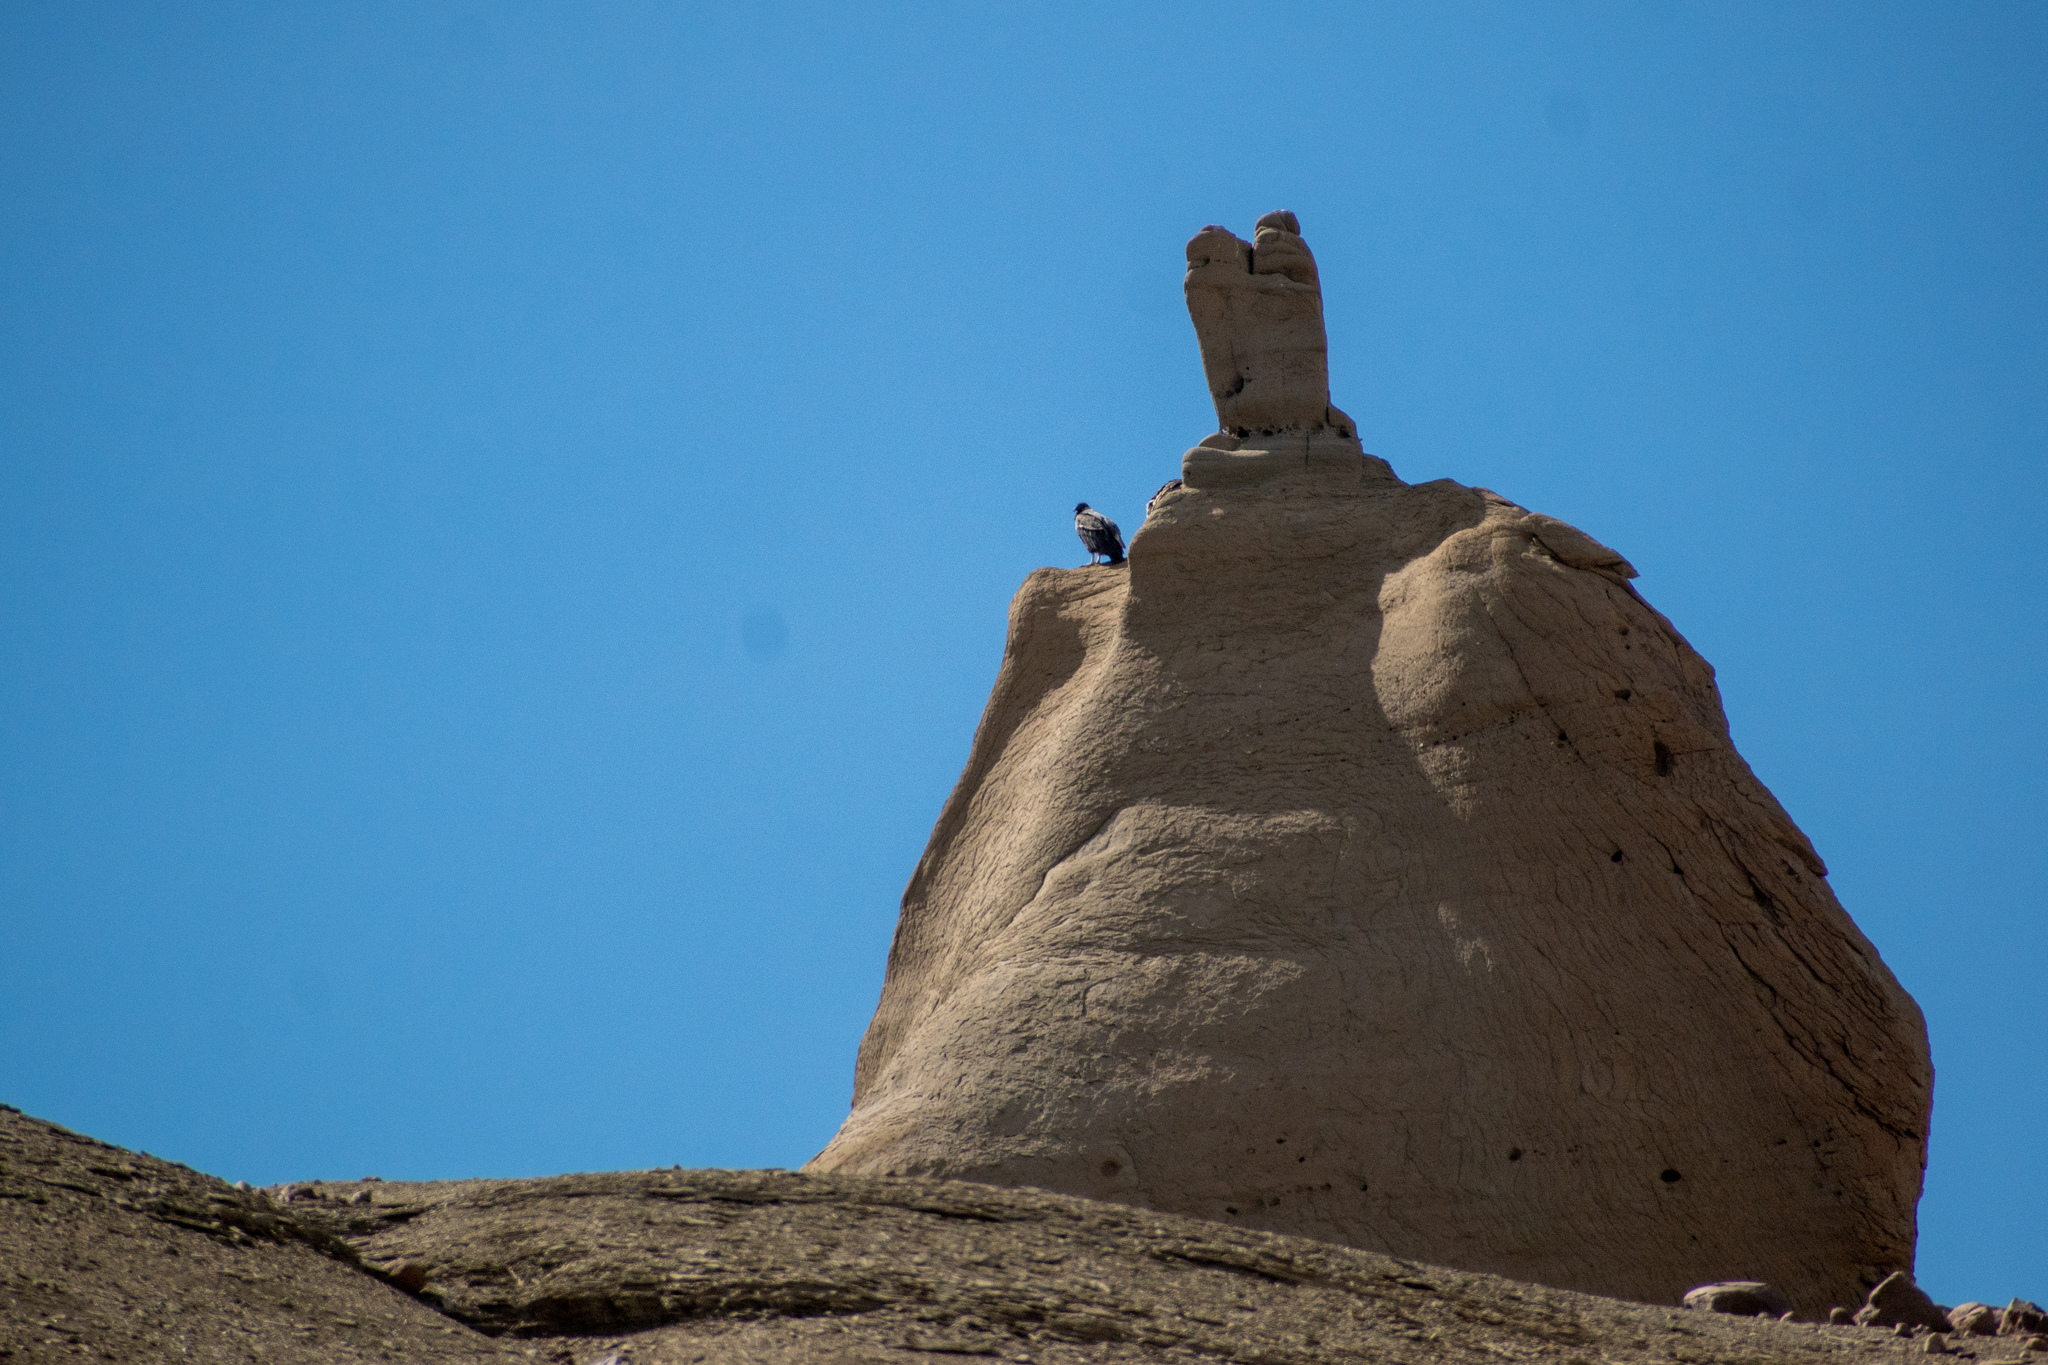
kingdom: Animalia
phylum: Chordata
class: Aves
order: Accipitriformes
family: Cathartidae
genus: Vultur
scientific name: Vultur gryphus
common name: Andean condor
